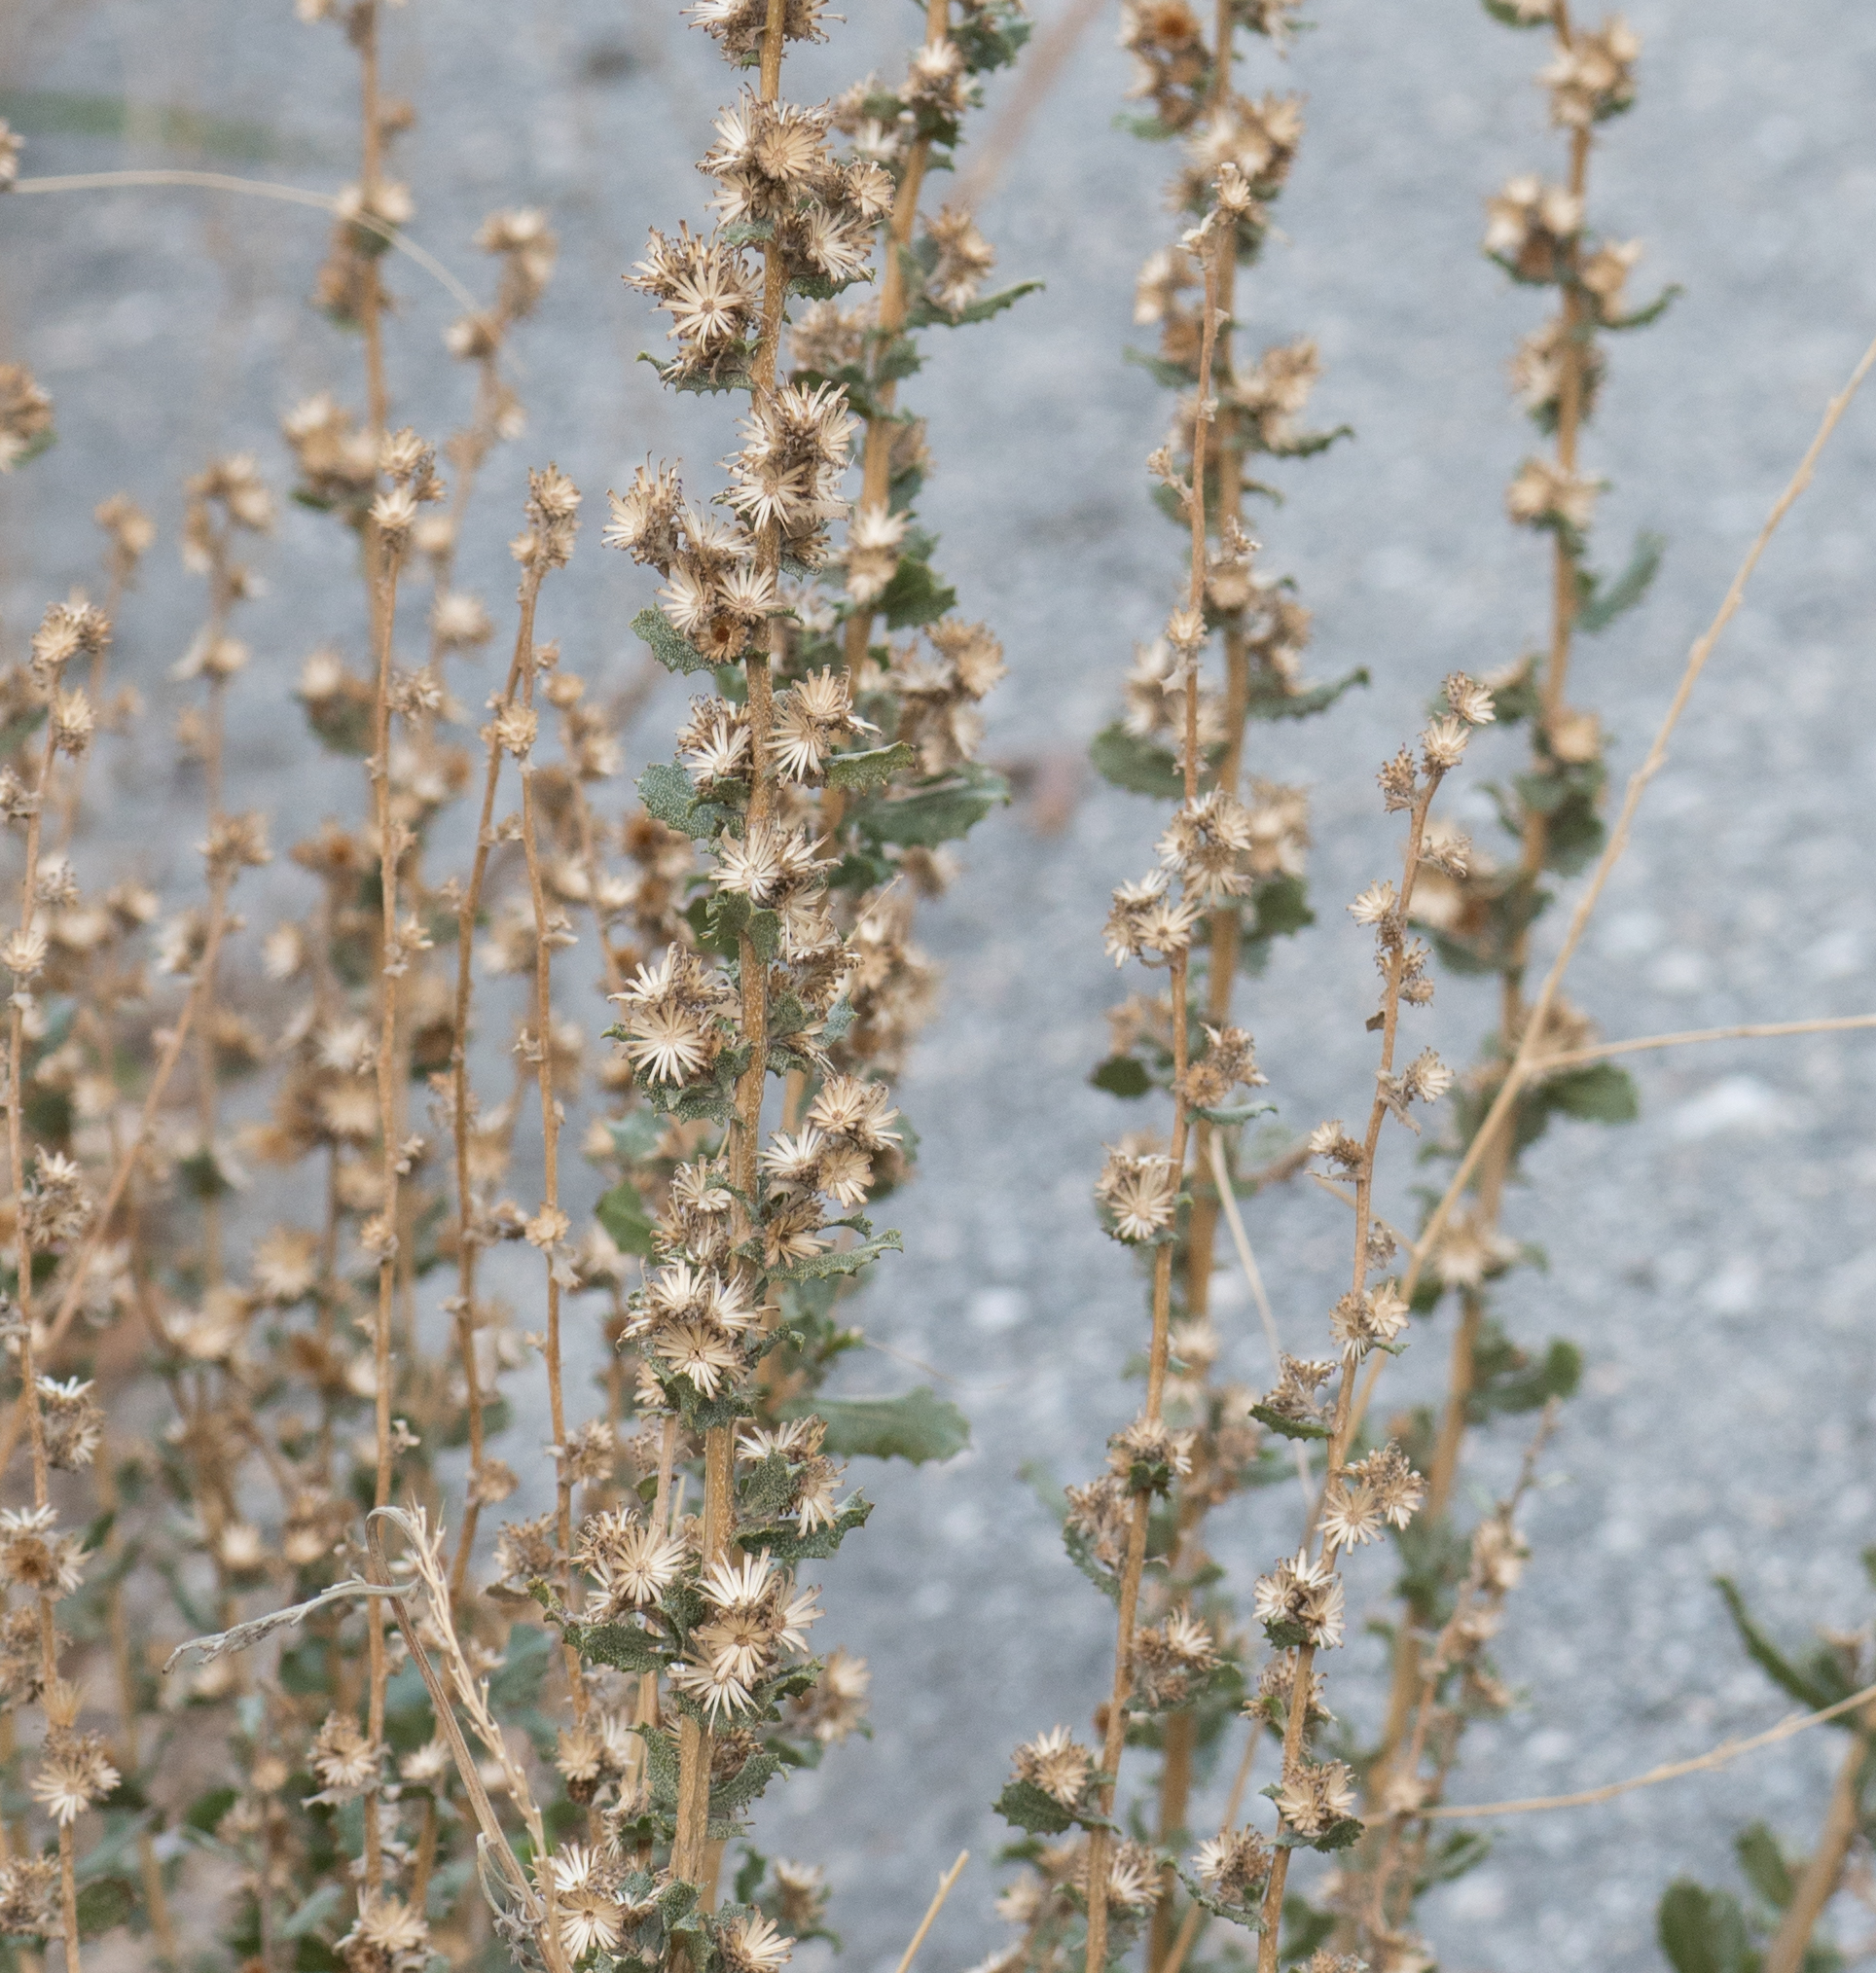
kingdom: Plantae
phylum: Tracheophyta
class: Magnoliopsida
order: Asterales
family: Asteraceae
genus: Hazardia
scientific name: Hazardia squarrosa
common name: Saw-tooth goldenbush
